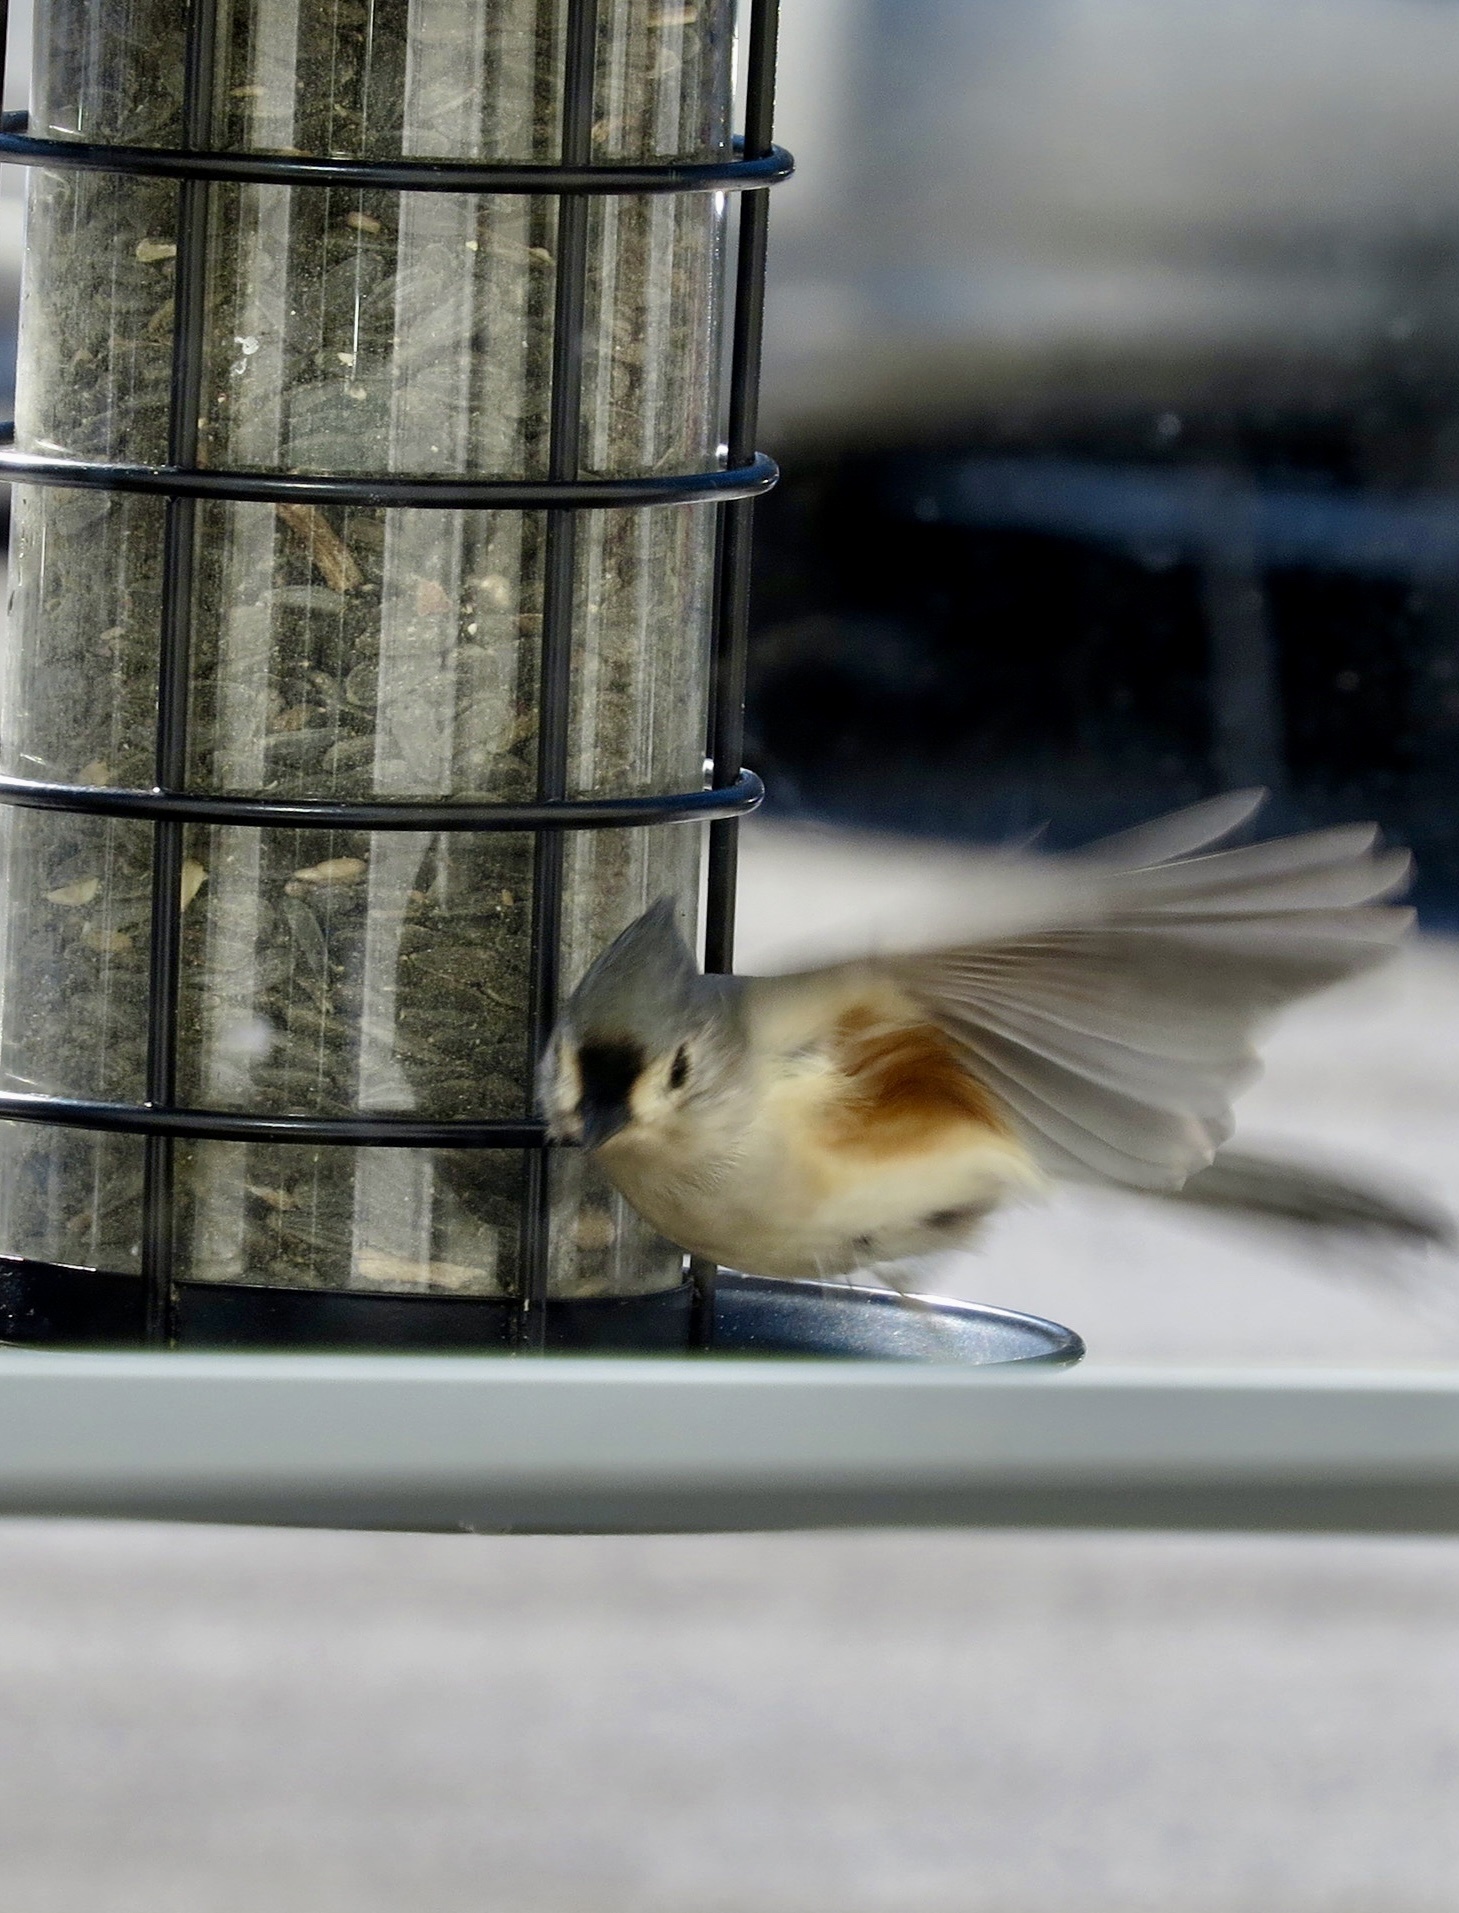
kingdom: Animalia
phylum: Chordata
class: Aves
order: Passeriformes
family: Paridae
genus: Baeolophus
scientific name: Baeolophus bicolor
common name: Tufted titmouse
